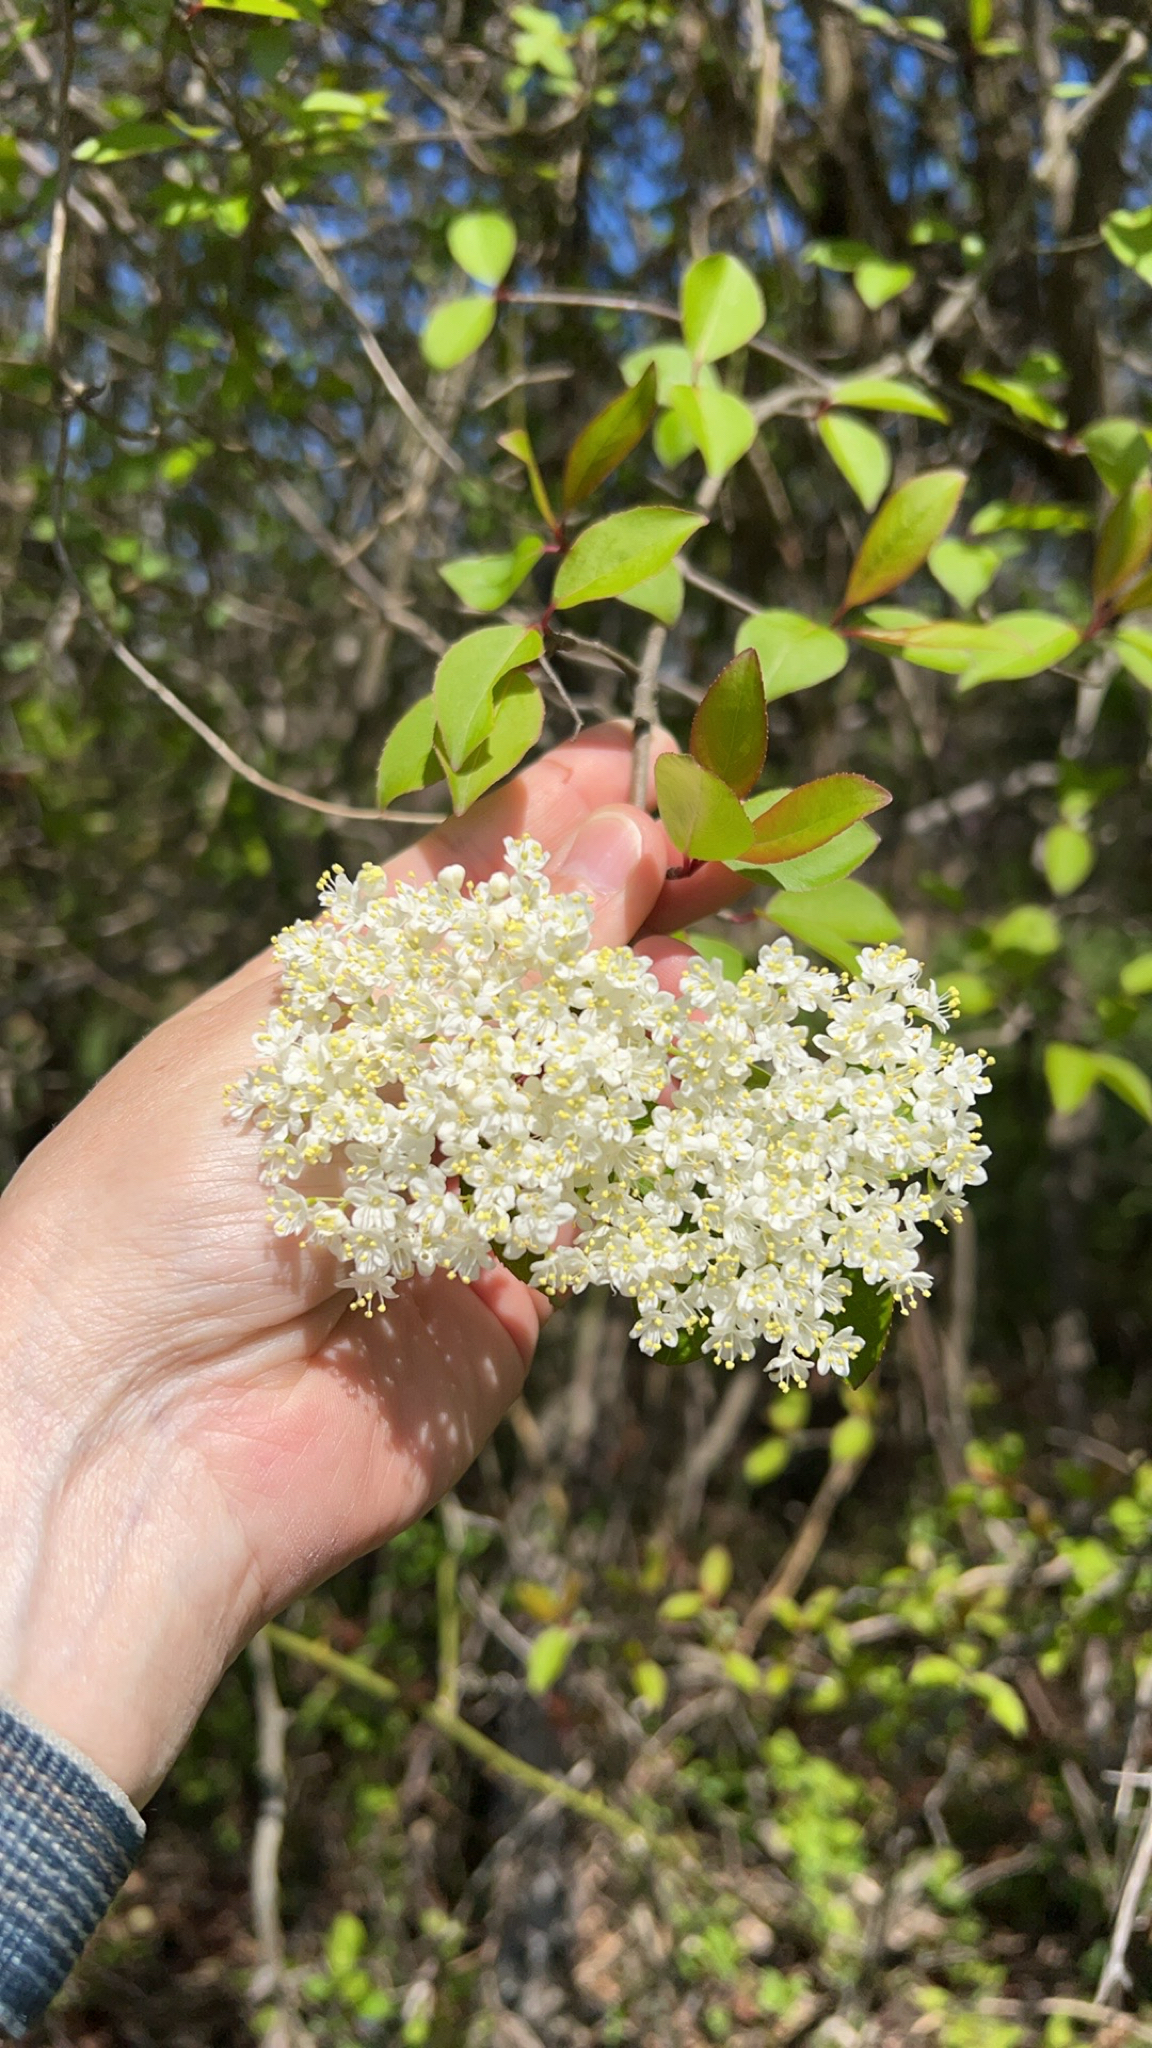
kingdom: Plantae
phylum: Tracheophyta
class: Magnoliopsida
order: Dipsacales
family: Viburnaceae
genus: Viburnum
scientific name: Viburnum prunifolium
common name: Black haw
